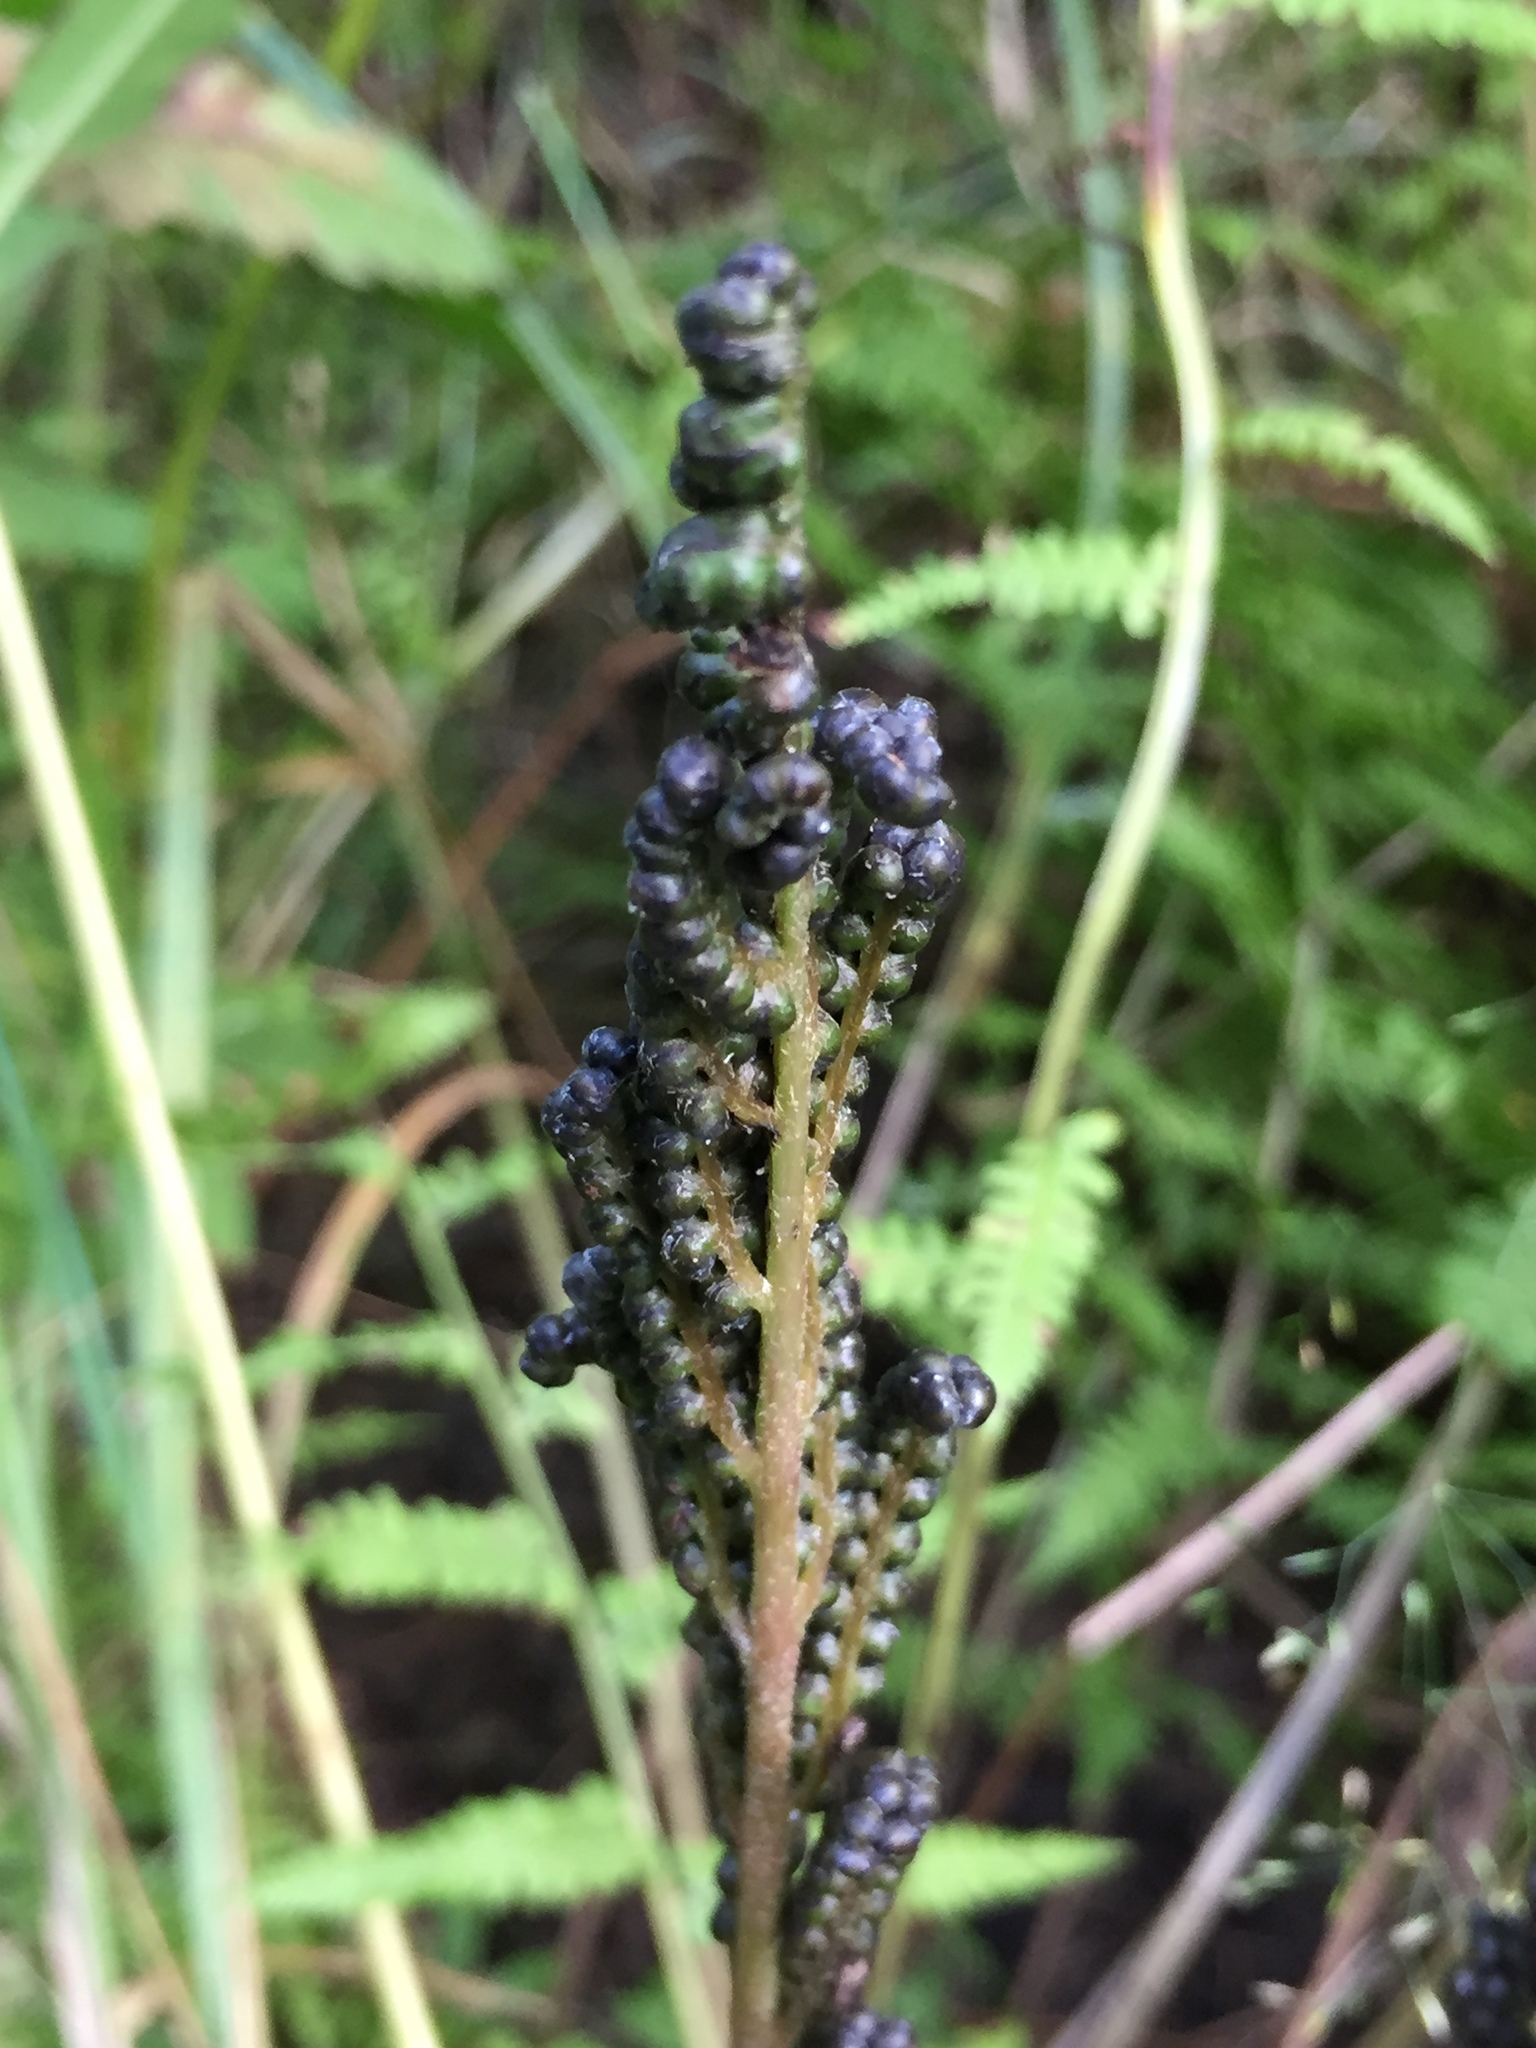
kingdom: Plantae
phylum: Tracheophyta
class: Polypodiopsida
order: Polypodiales
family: Onocleaceae
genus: Onoclea
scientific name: Onoclea sensibilis
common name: Sensitive fern
